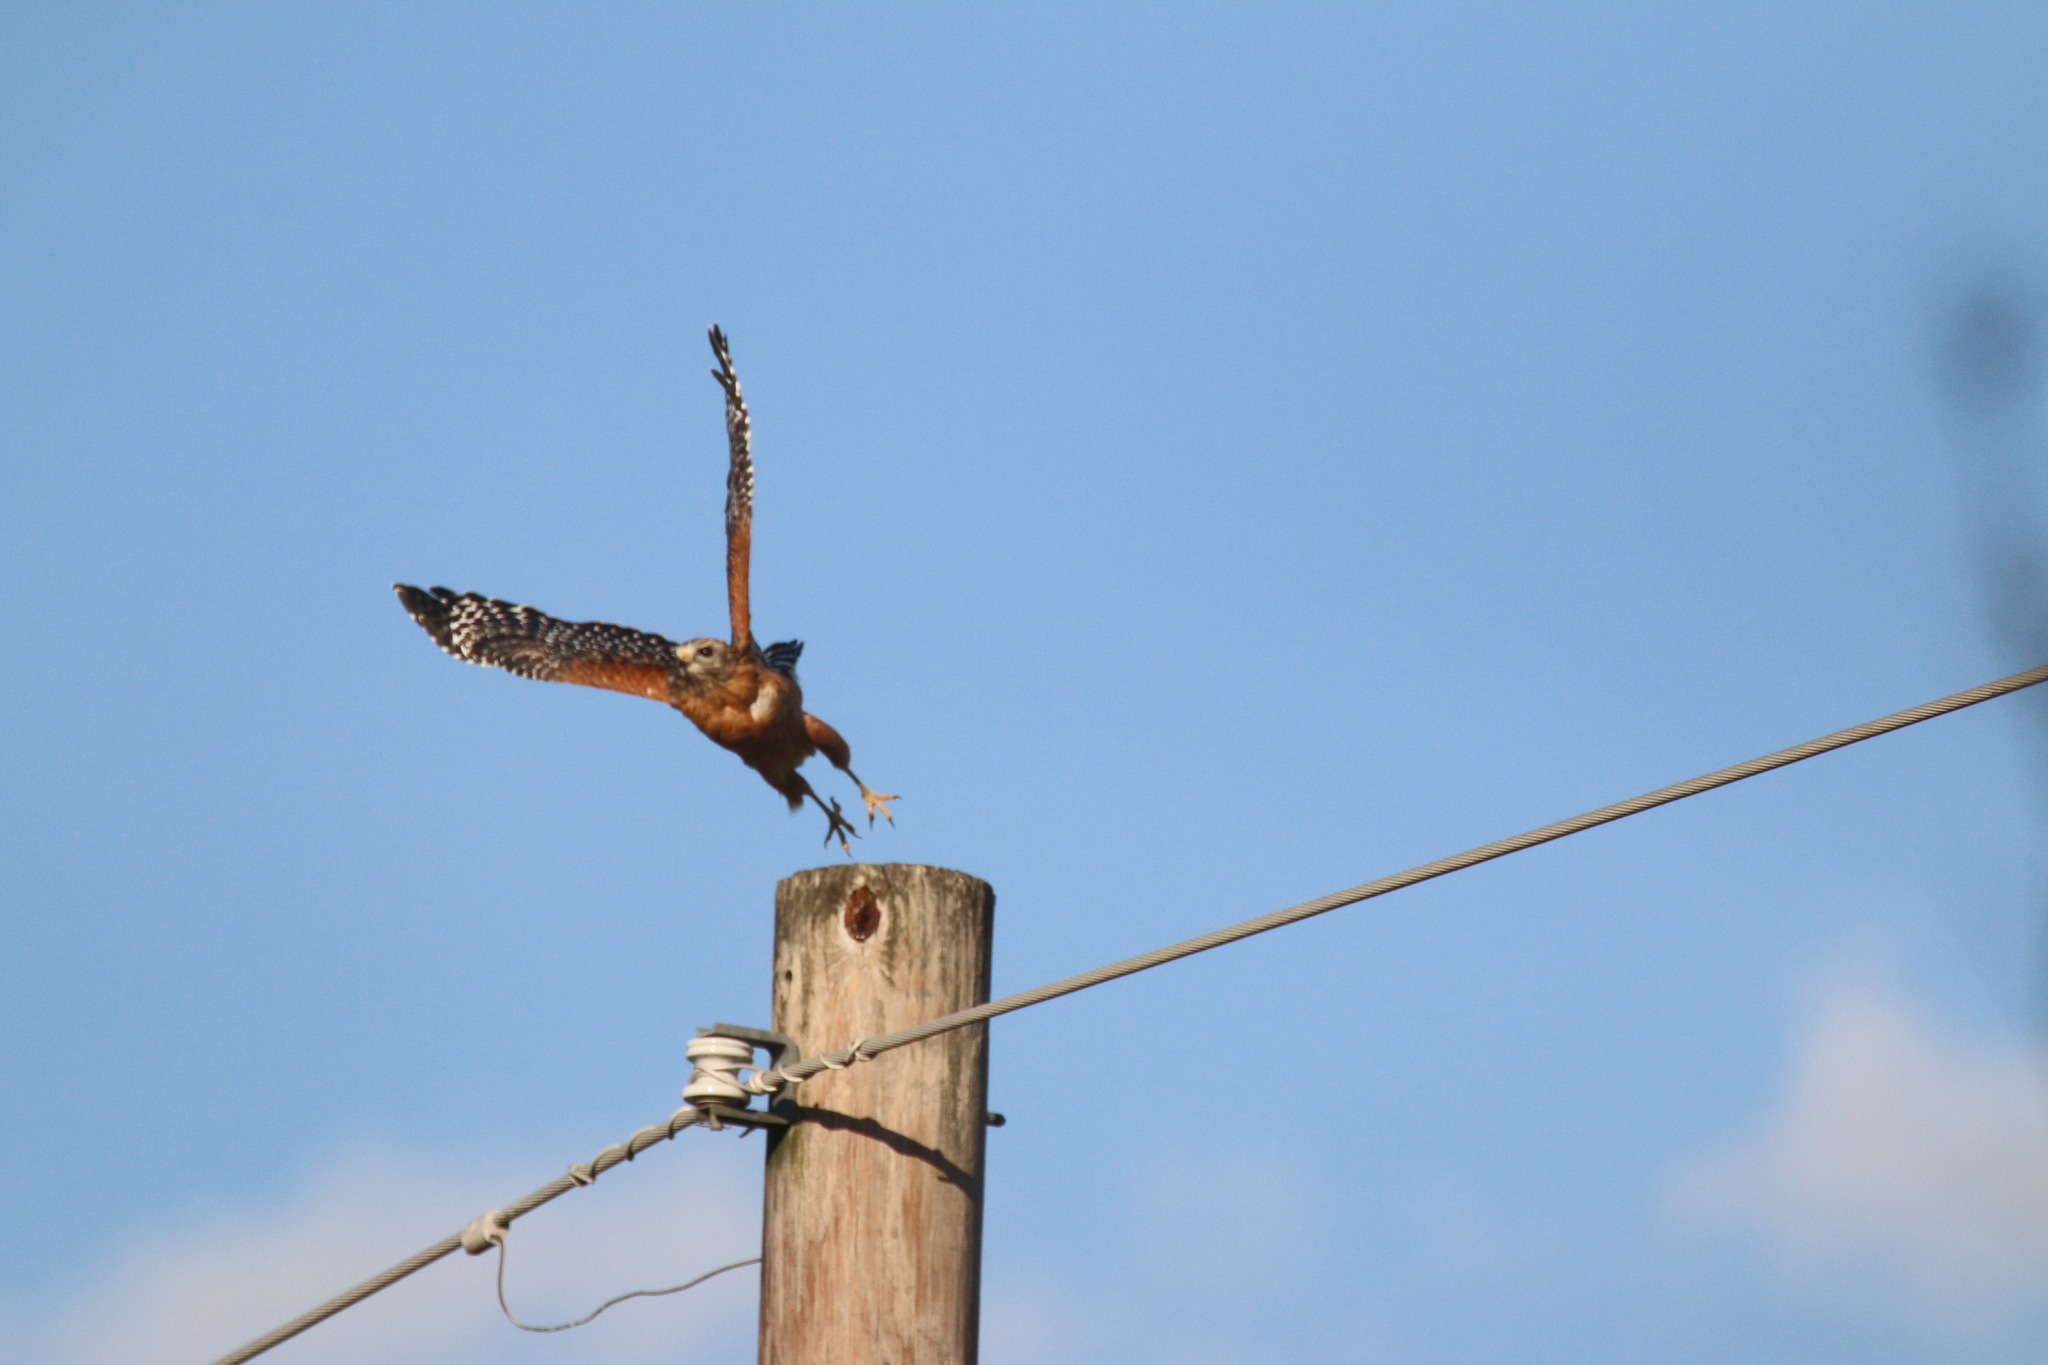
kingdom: Animalia
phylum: Chordata
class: Aves
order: Accipitriformes
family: Accipitridae
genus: Buteo
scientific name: Buteo lineatus
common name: Red-shouldered hawk
